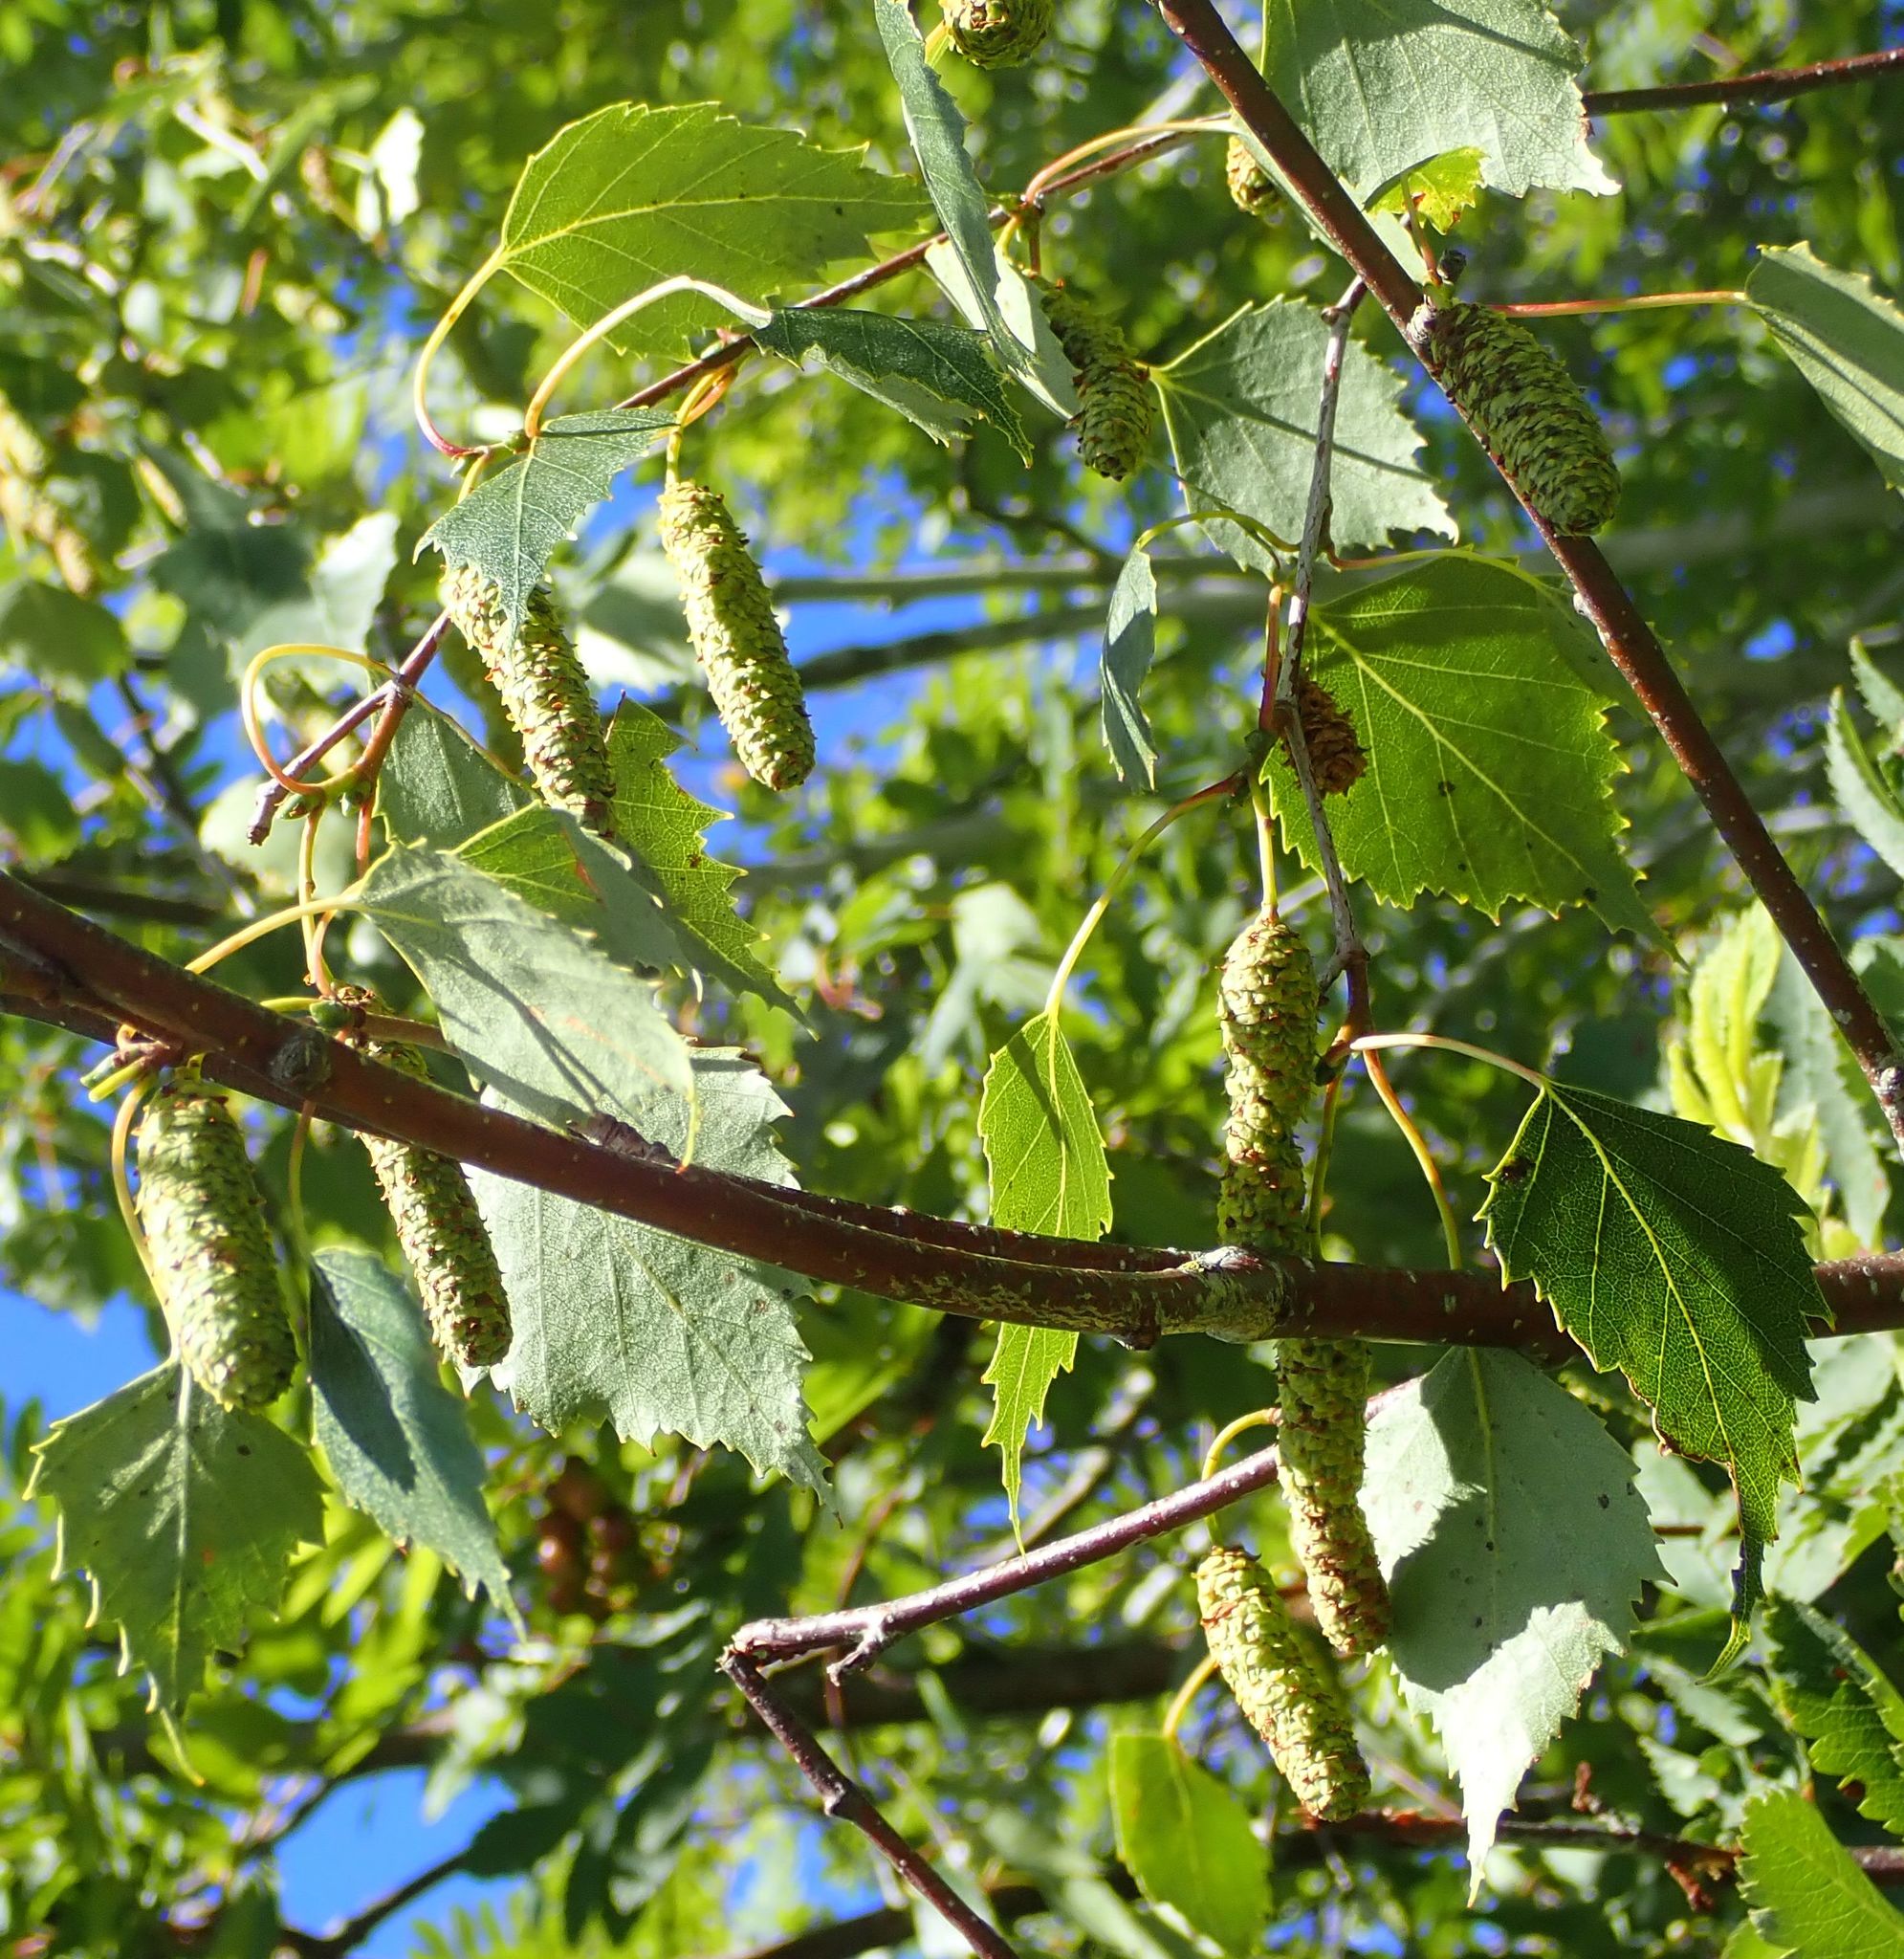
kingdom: Plantae
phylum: Tracheophyta
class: Magnoliopsida
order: Fagales
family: Betulaceae
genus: Betula
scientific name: Betula pendula
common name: Silver birch
